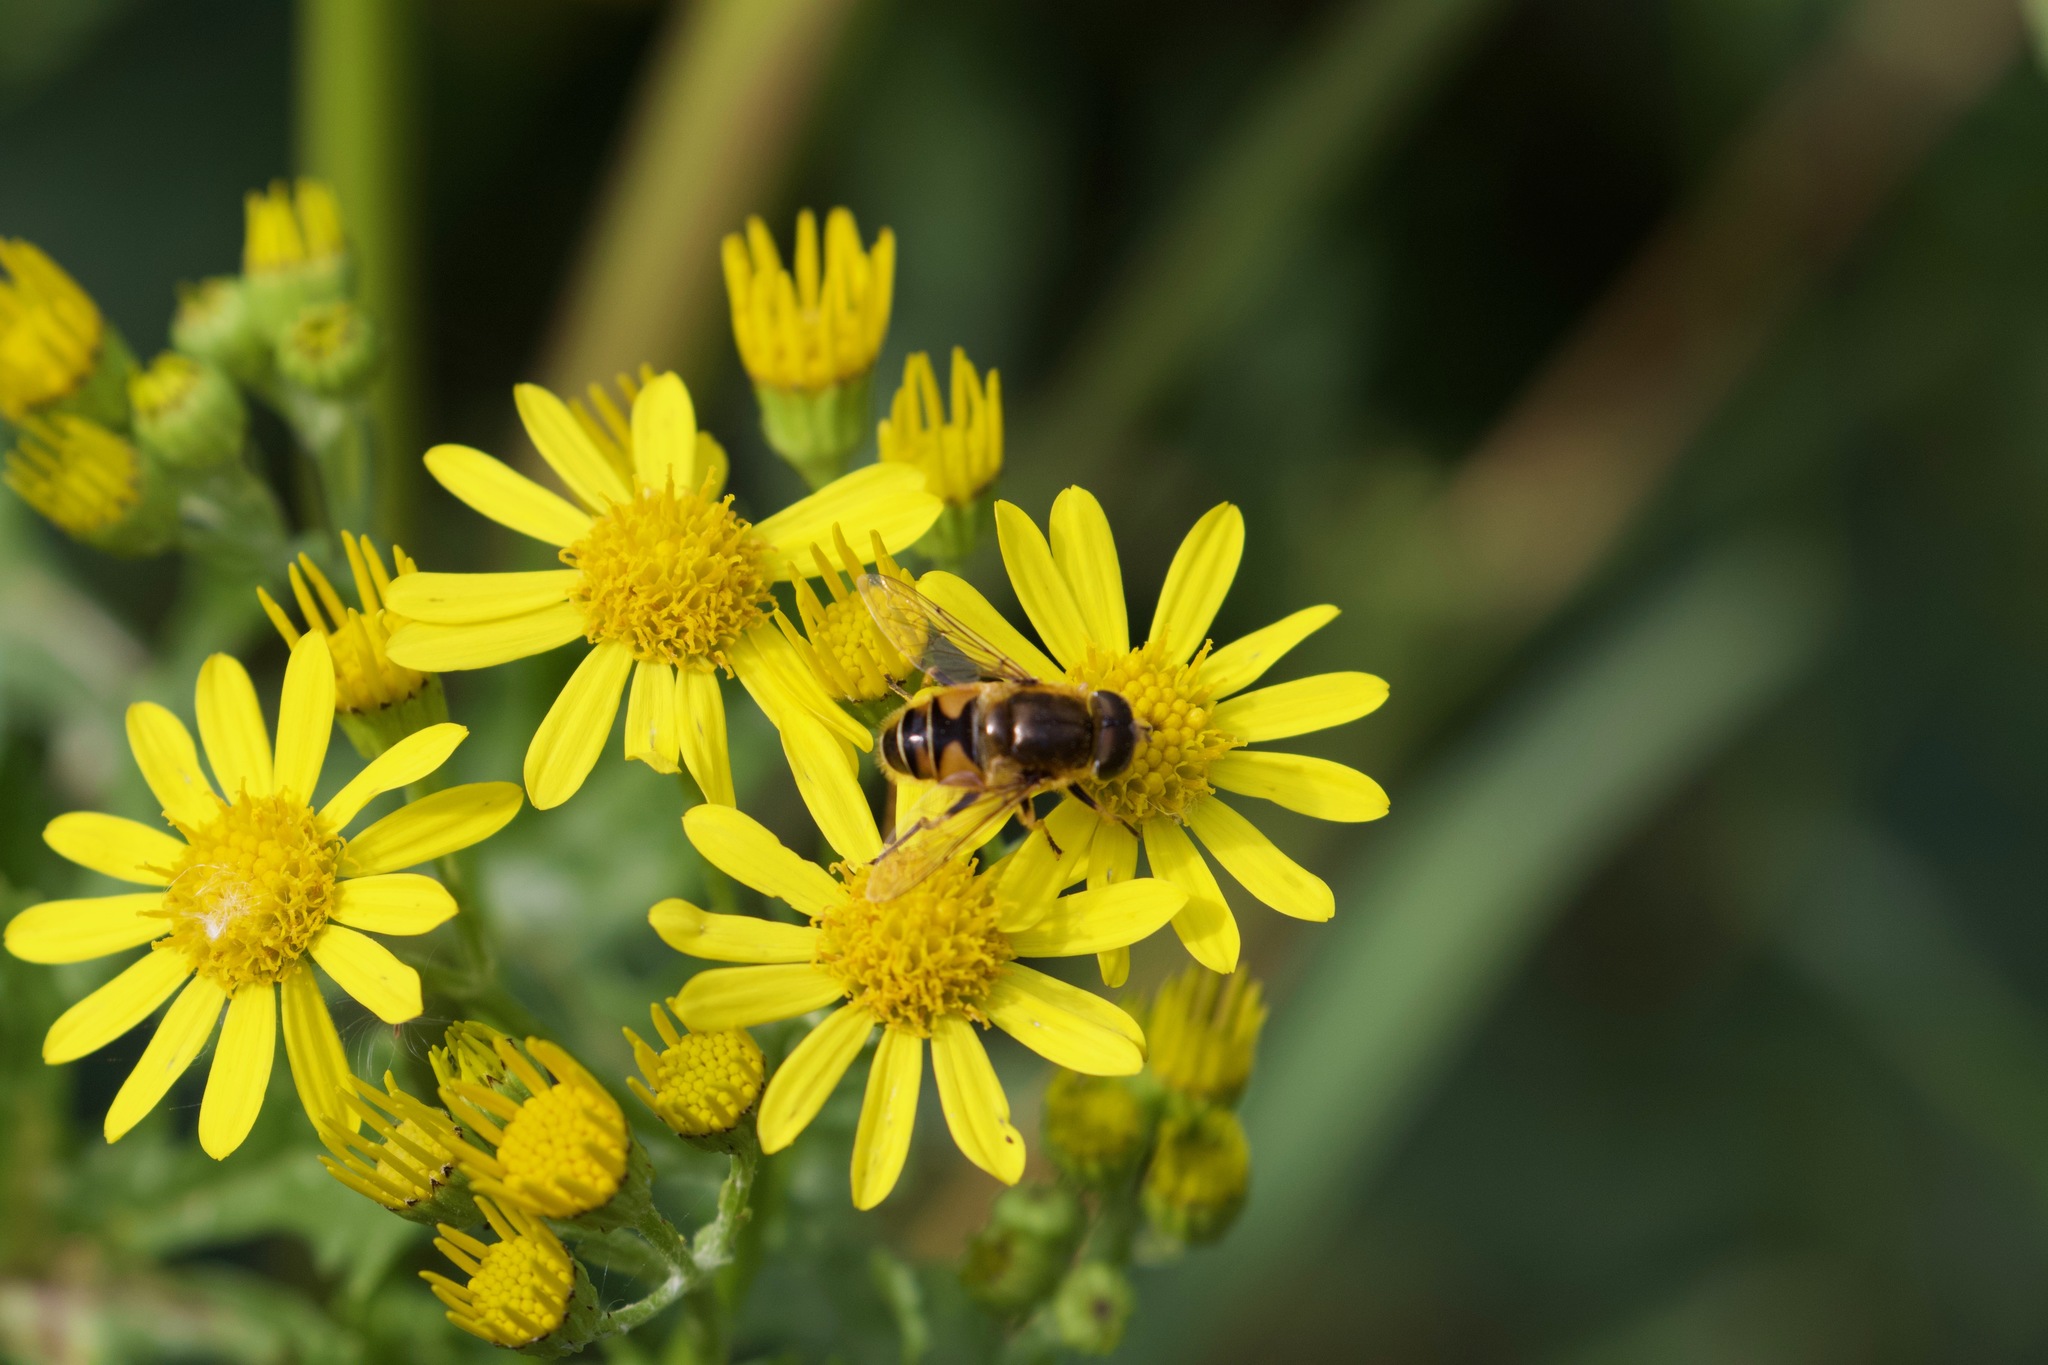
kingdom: Animalia
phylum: Arthropoda
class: Insecta
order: Diptera
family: Syrphidae
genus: Eristalis
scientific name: Eristalis nemorum
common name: Orange-spined drone fly
